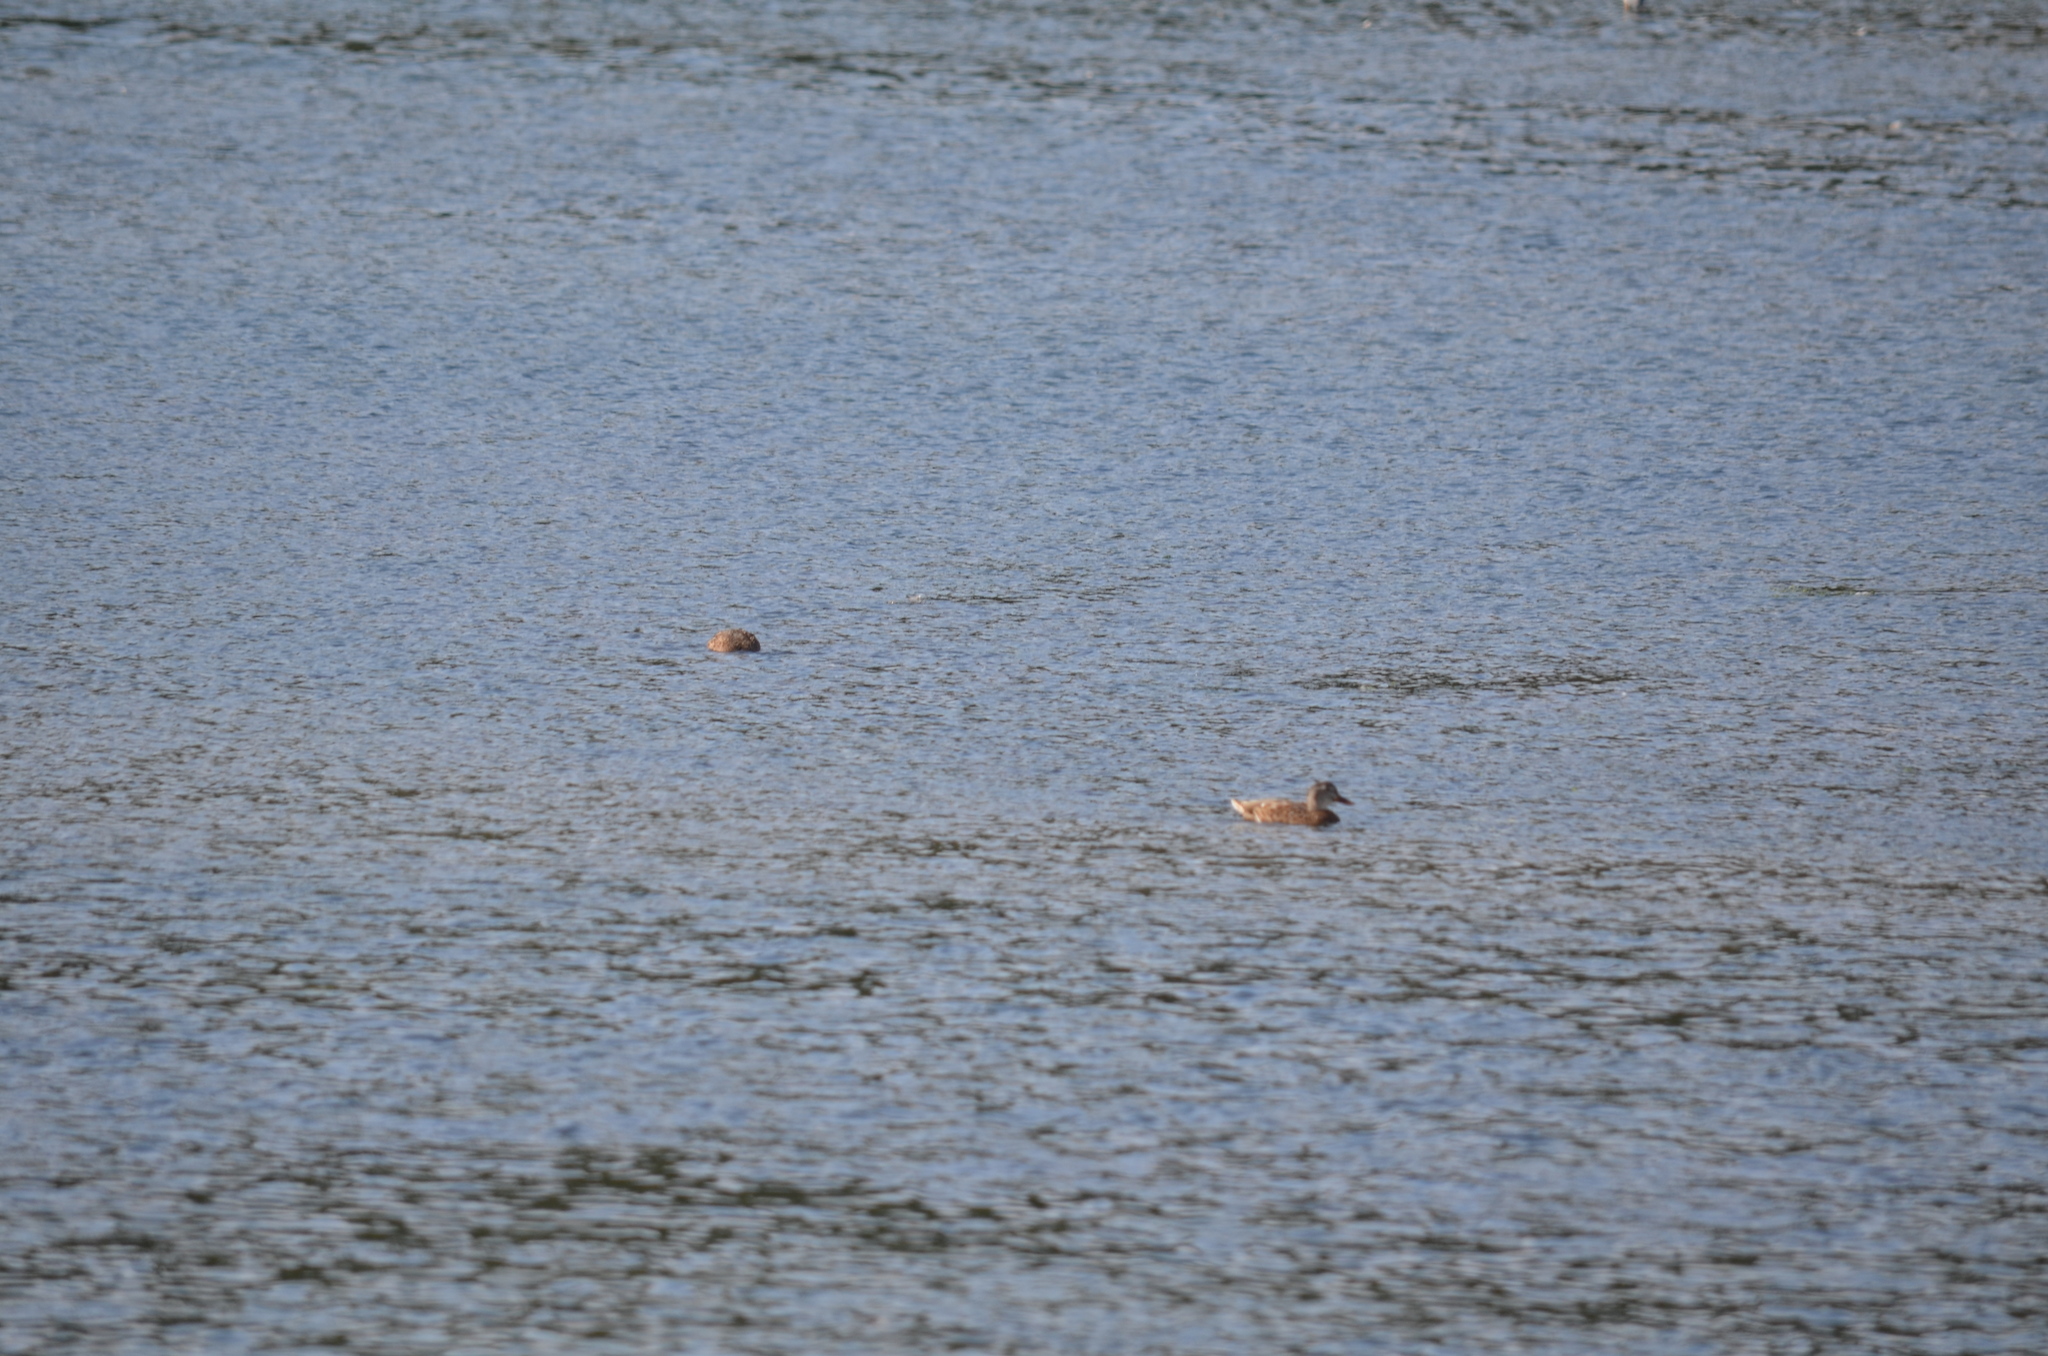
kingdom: Animalia
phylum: Chordata
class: Aves
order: Anseriformes
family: Anatidae
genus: Mareca
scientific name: Mareca strepera
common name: Gadwall
